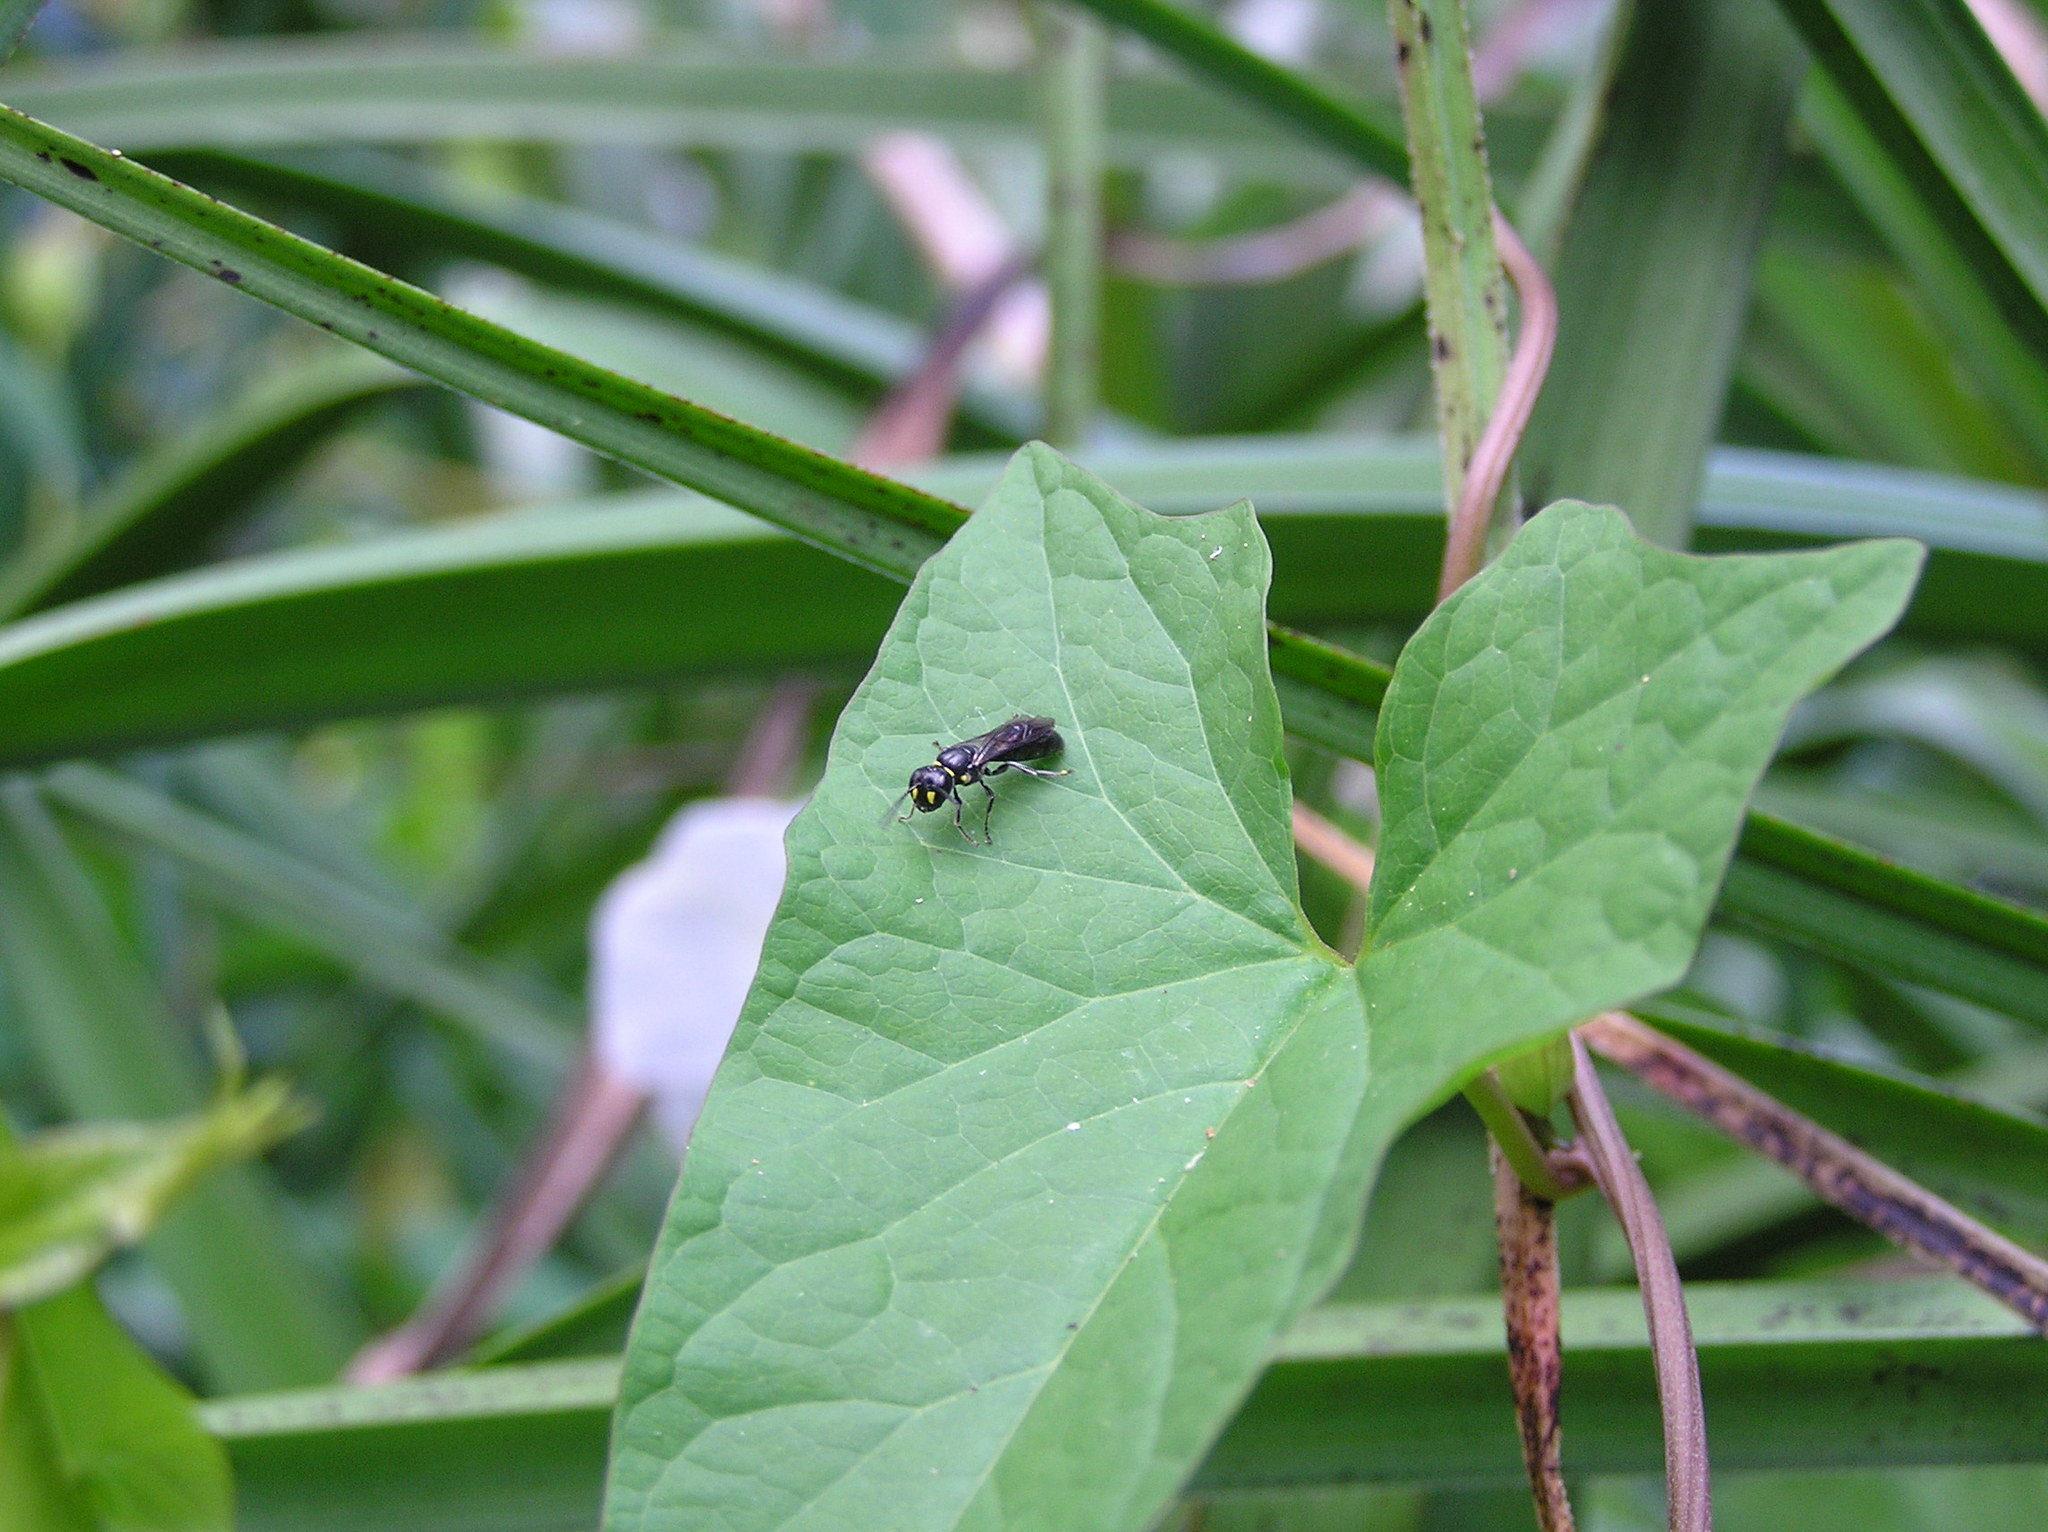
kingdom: Animalia
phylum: Arthropoda
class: Insecta
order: Hymenoptera
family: Colletidae
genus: Hylaeus
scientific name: Hylaeus agilis
